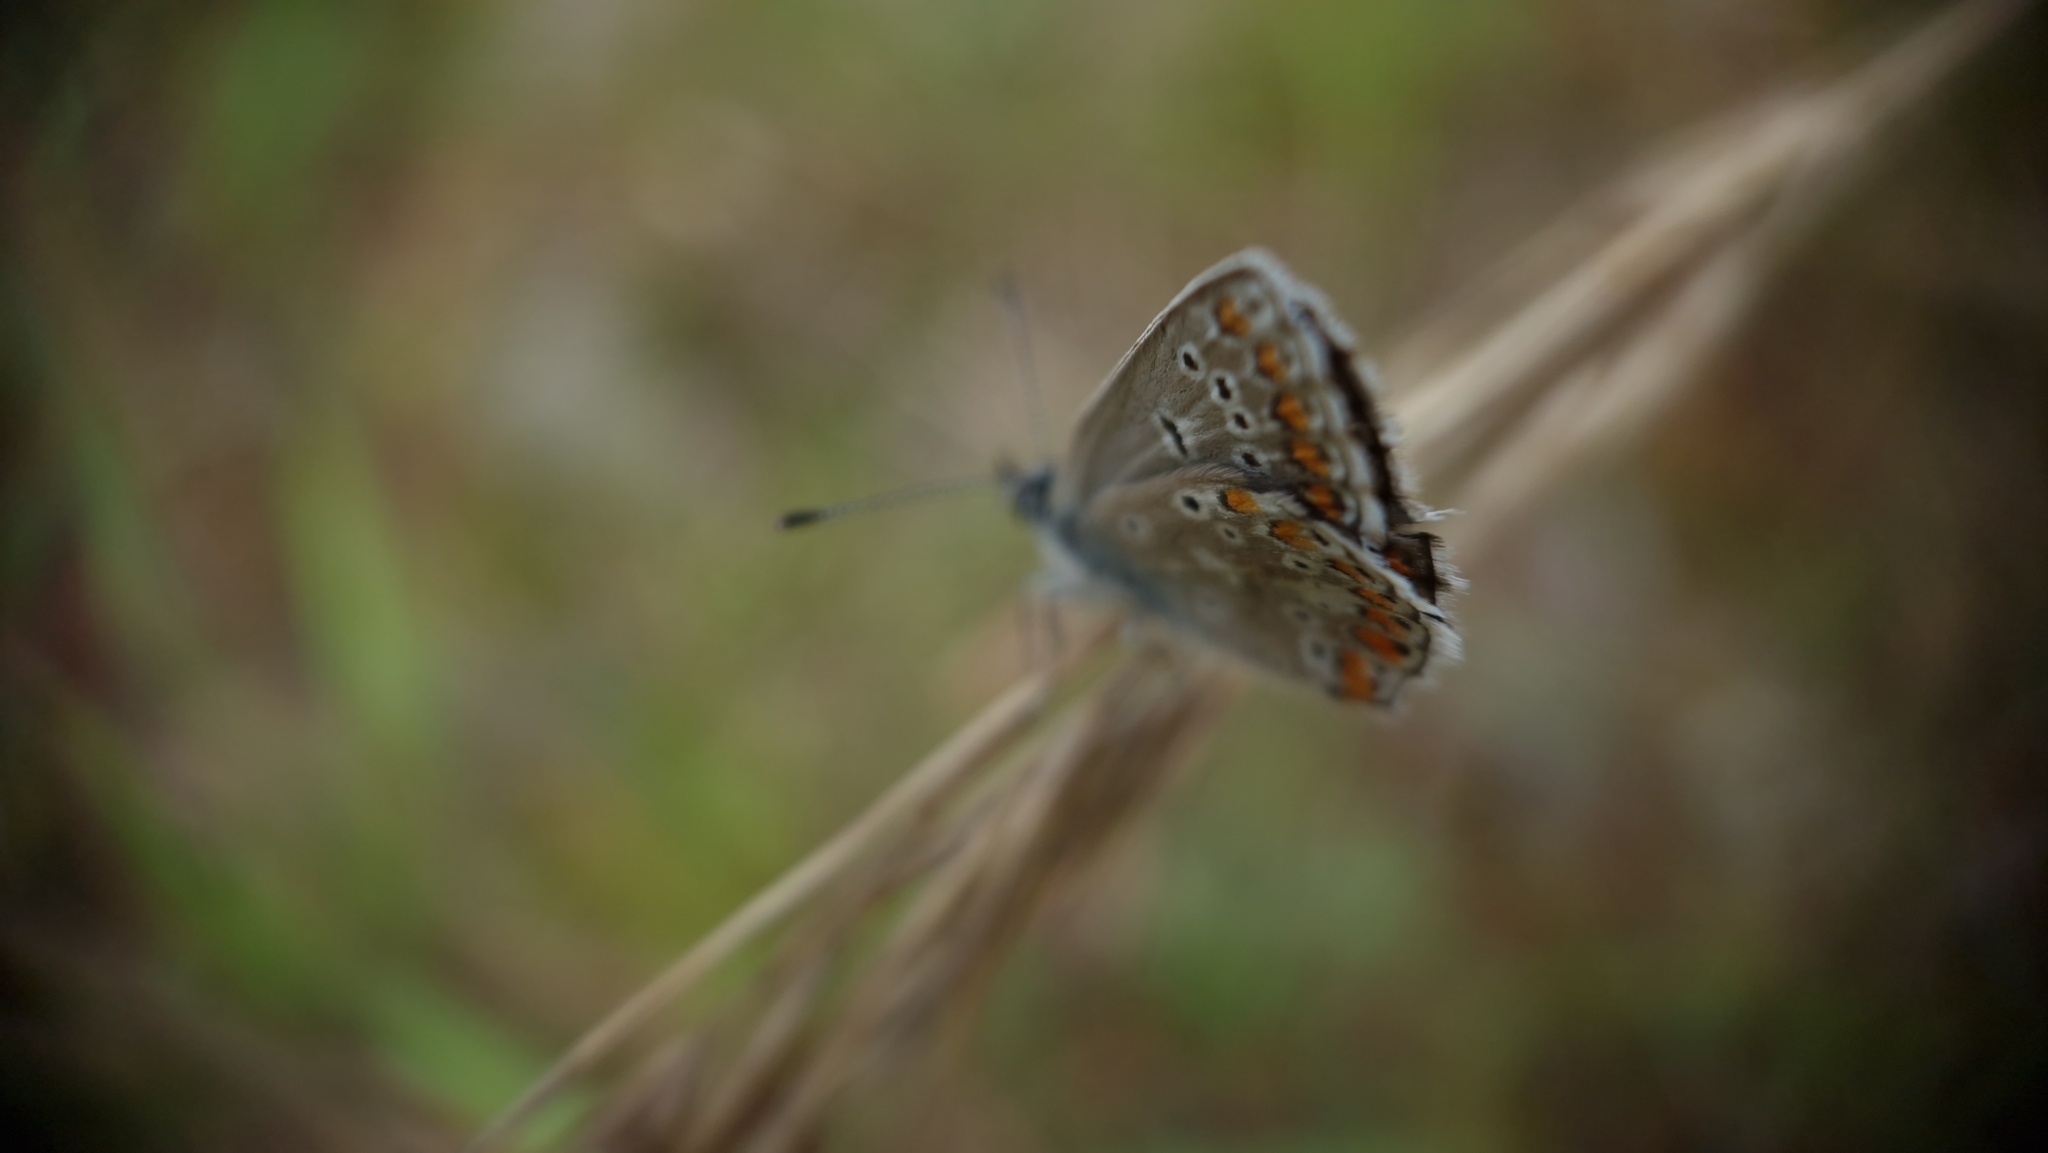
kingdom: Animalia
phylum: Arthropoda
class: Insecta
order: Lepidoptera
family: Lycaenidae
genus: Aricia
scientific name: Aricia agestis
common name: Brown argus
